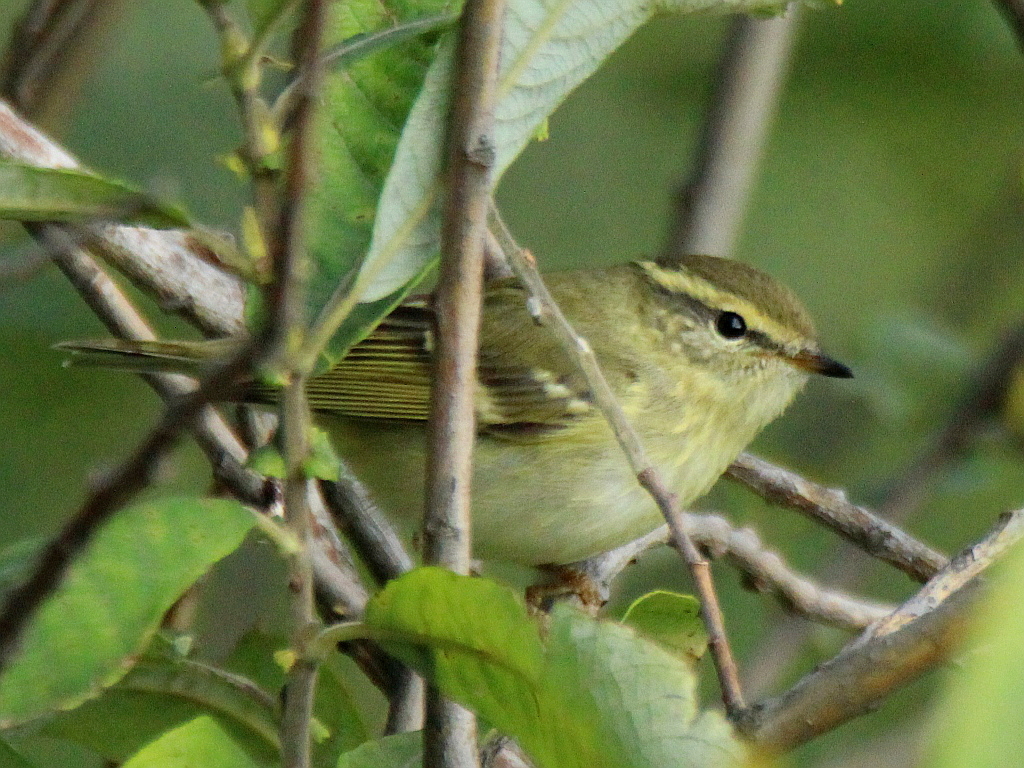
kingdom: Animalia
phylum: Chordata
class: Aves
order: Passeriformes
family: Phylloscopidae
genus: Phylloscopus
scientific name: Phylloscopus inornatus
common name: Yellow-browed warbler
